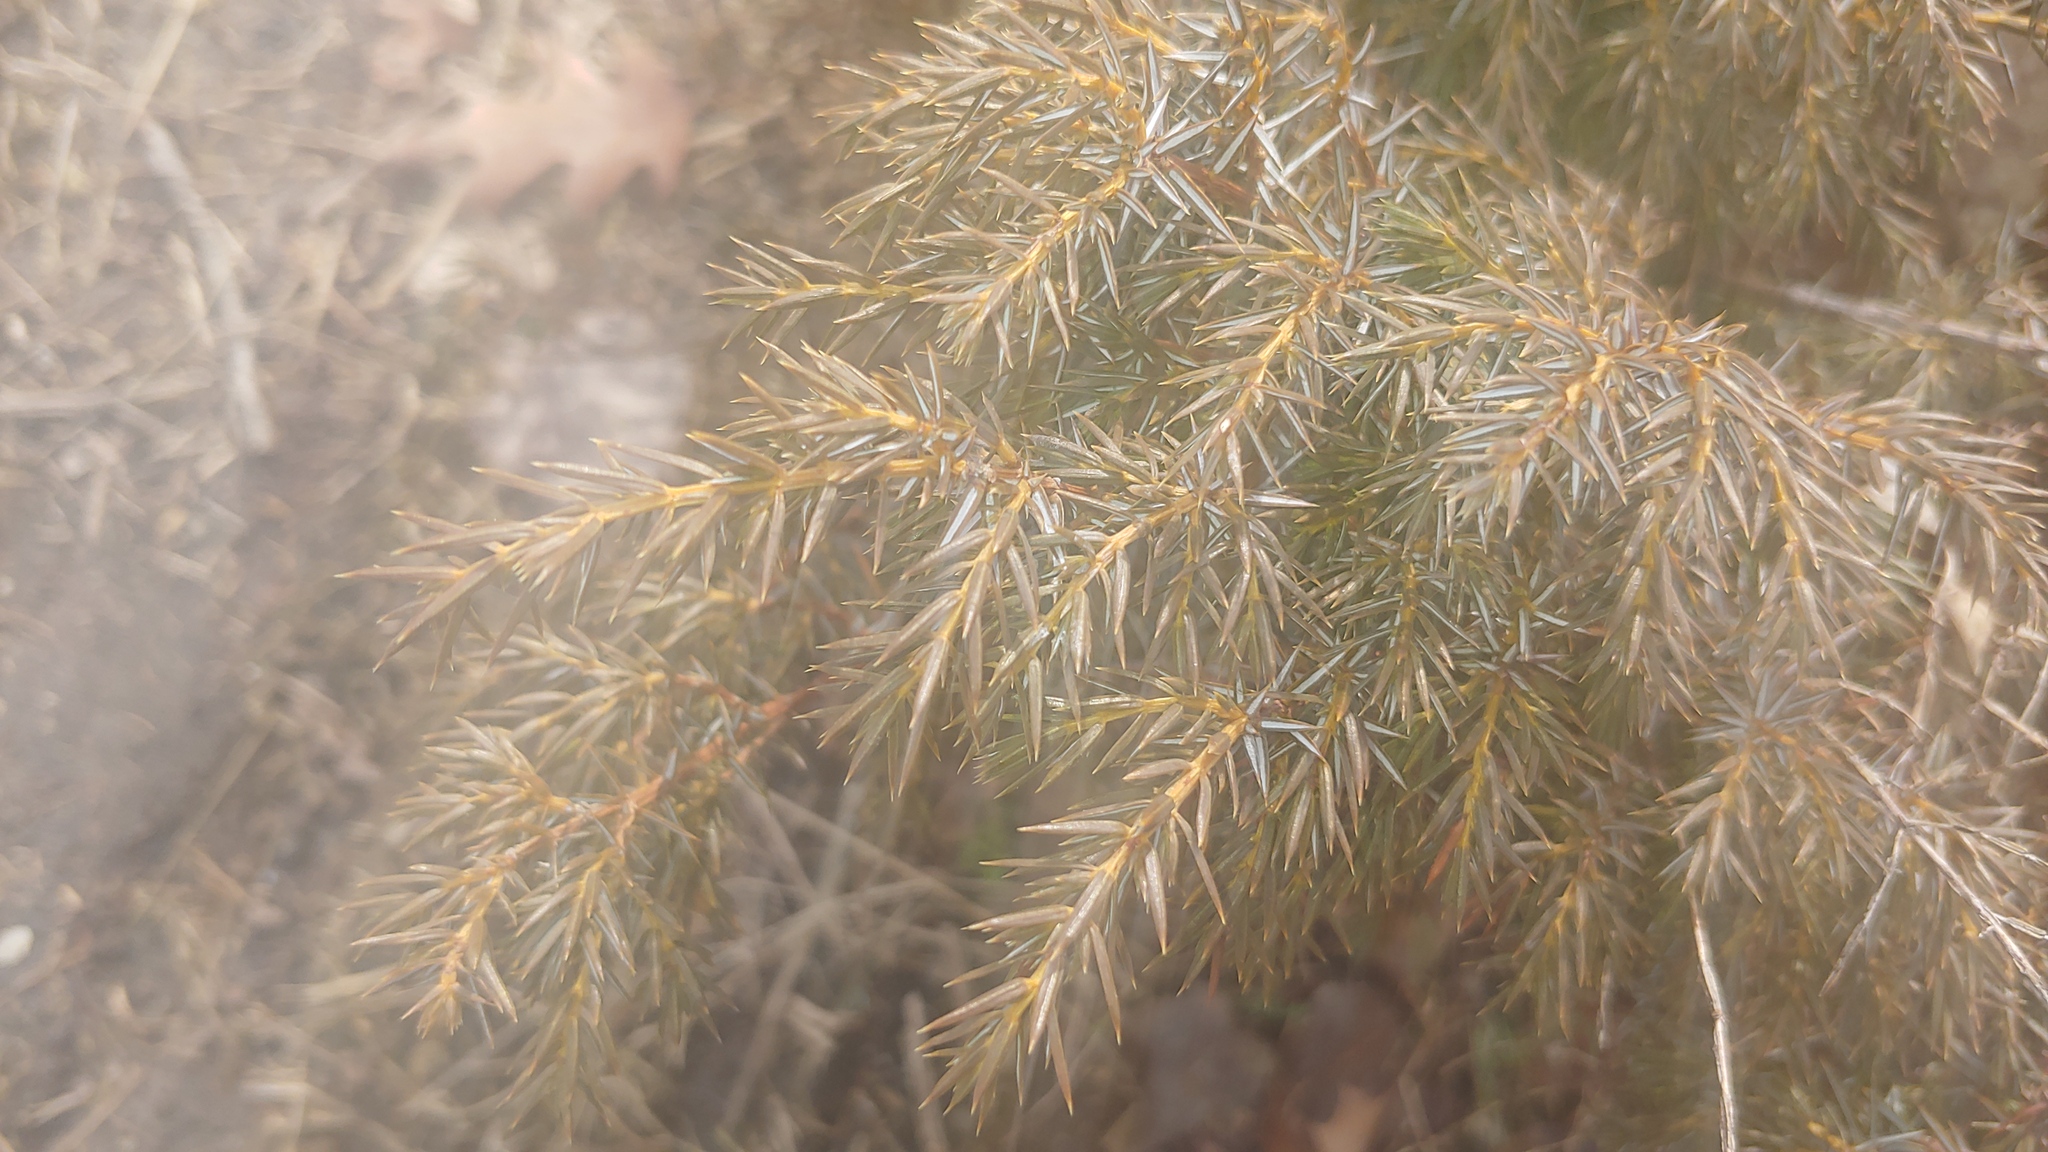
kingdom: Plantae
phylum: Tracheophyta
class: Pinopsida
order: Pinales
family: Cupressaceae
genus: Juniperus
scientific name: Juniperus communis
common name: Common juniper
